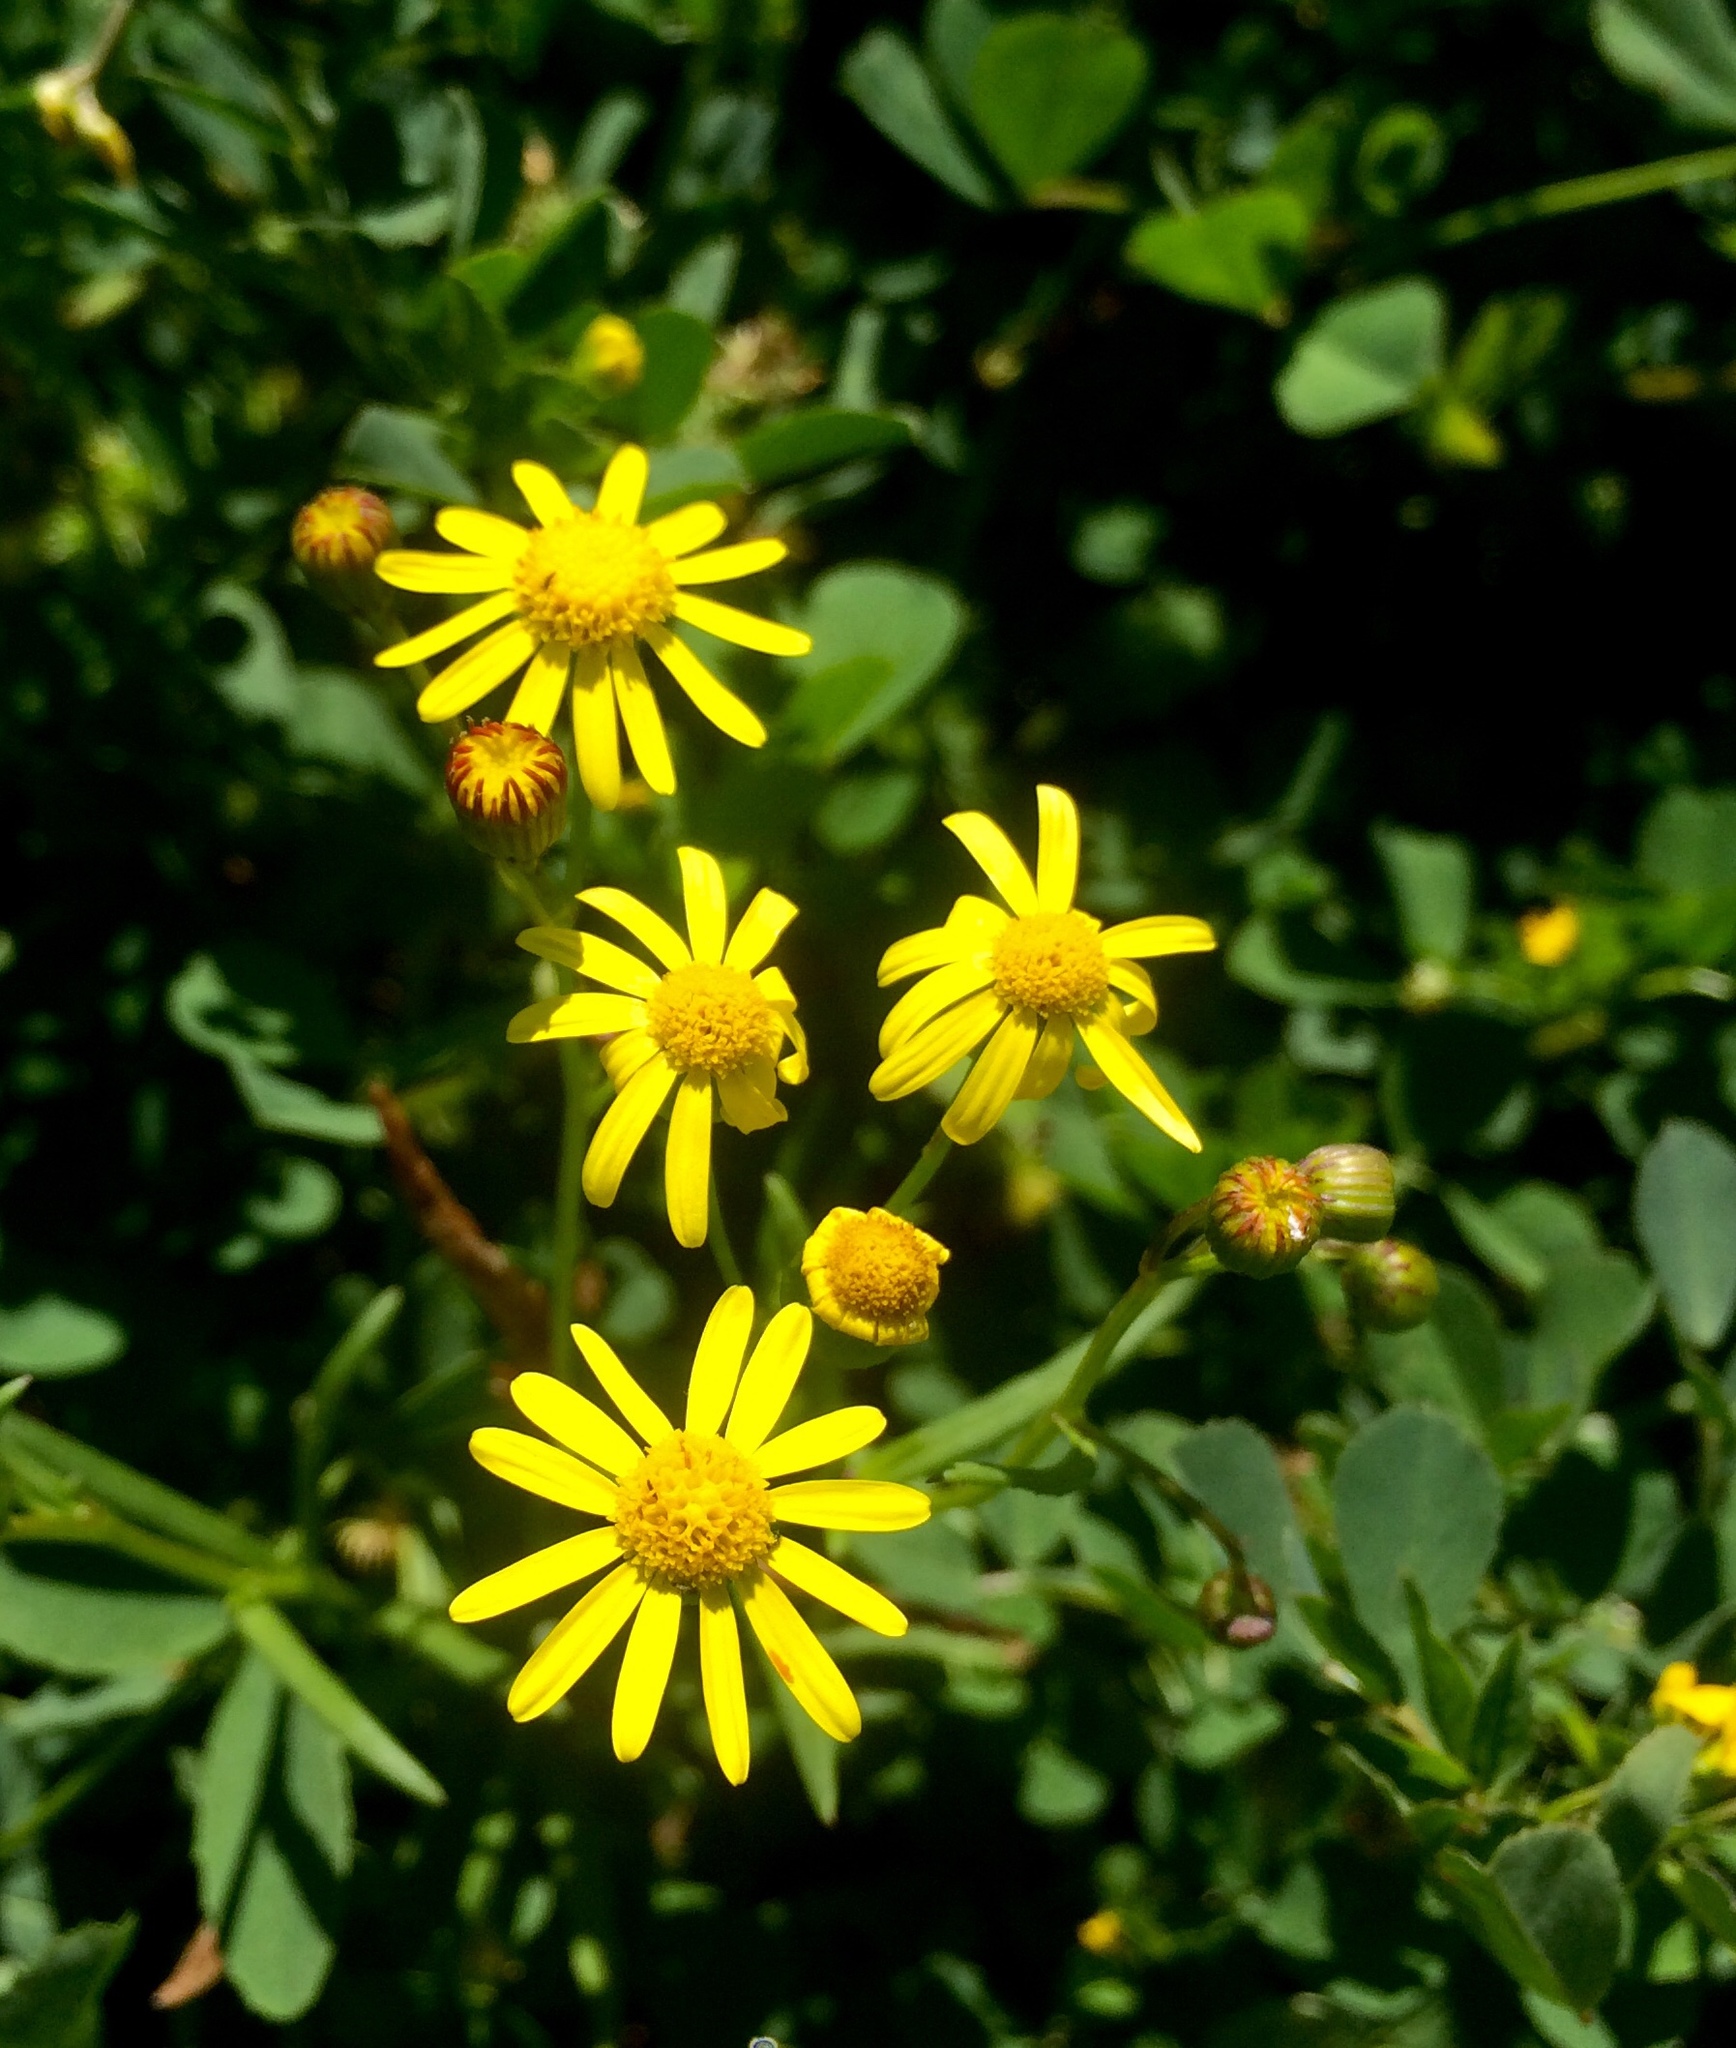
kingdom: Plantae
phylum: Tracheophyta
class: Magnoliopsida
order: Asterales
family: Asteraceae
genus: Senecio
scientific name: Senecio madagascariensis
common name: Madagascar ragwort
